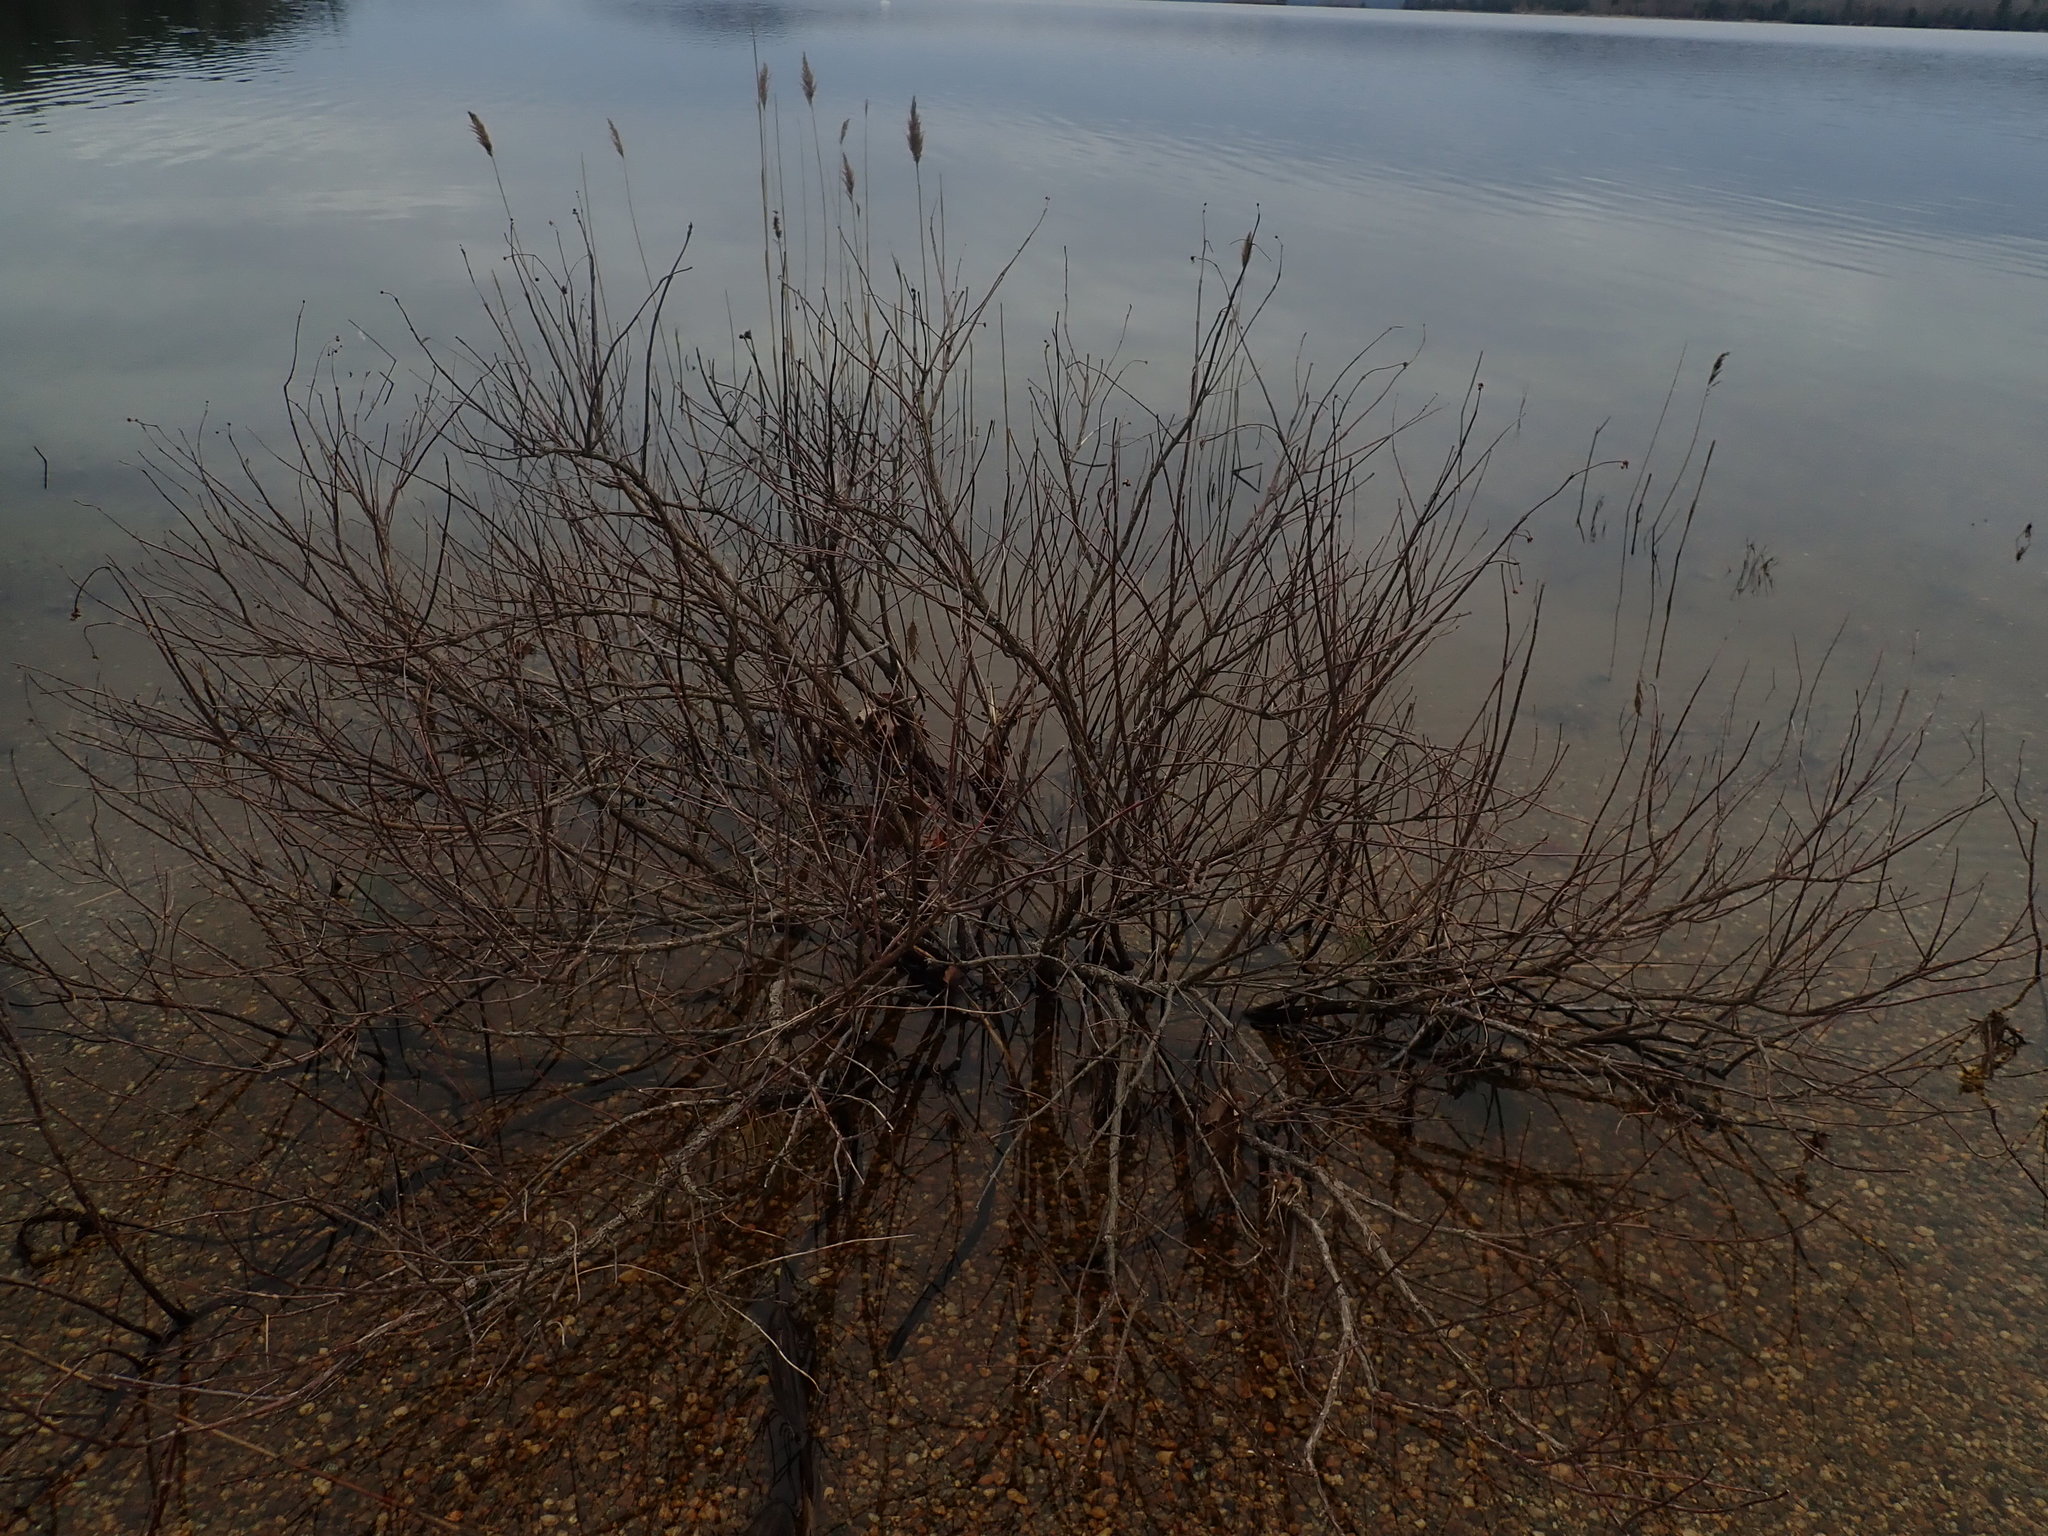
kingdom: Plantae
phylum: Tracheophyta
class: Magnoliopsida
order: Gentianales
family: Rubiaceae
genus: Cephalanthus
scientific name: Cephalanthus occidentalis
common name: Button-willow
